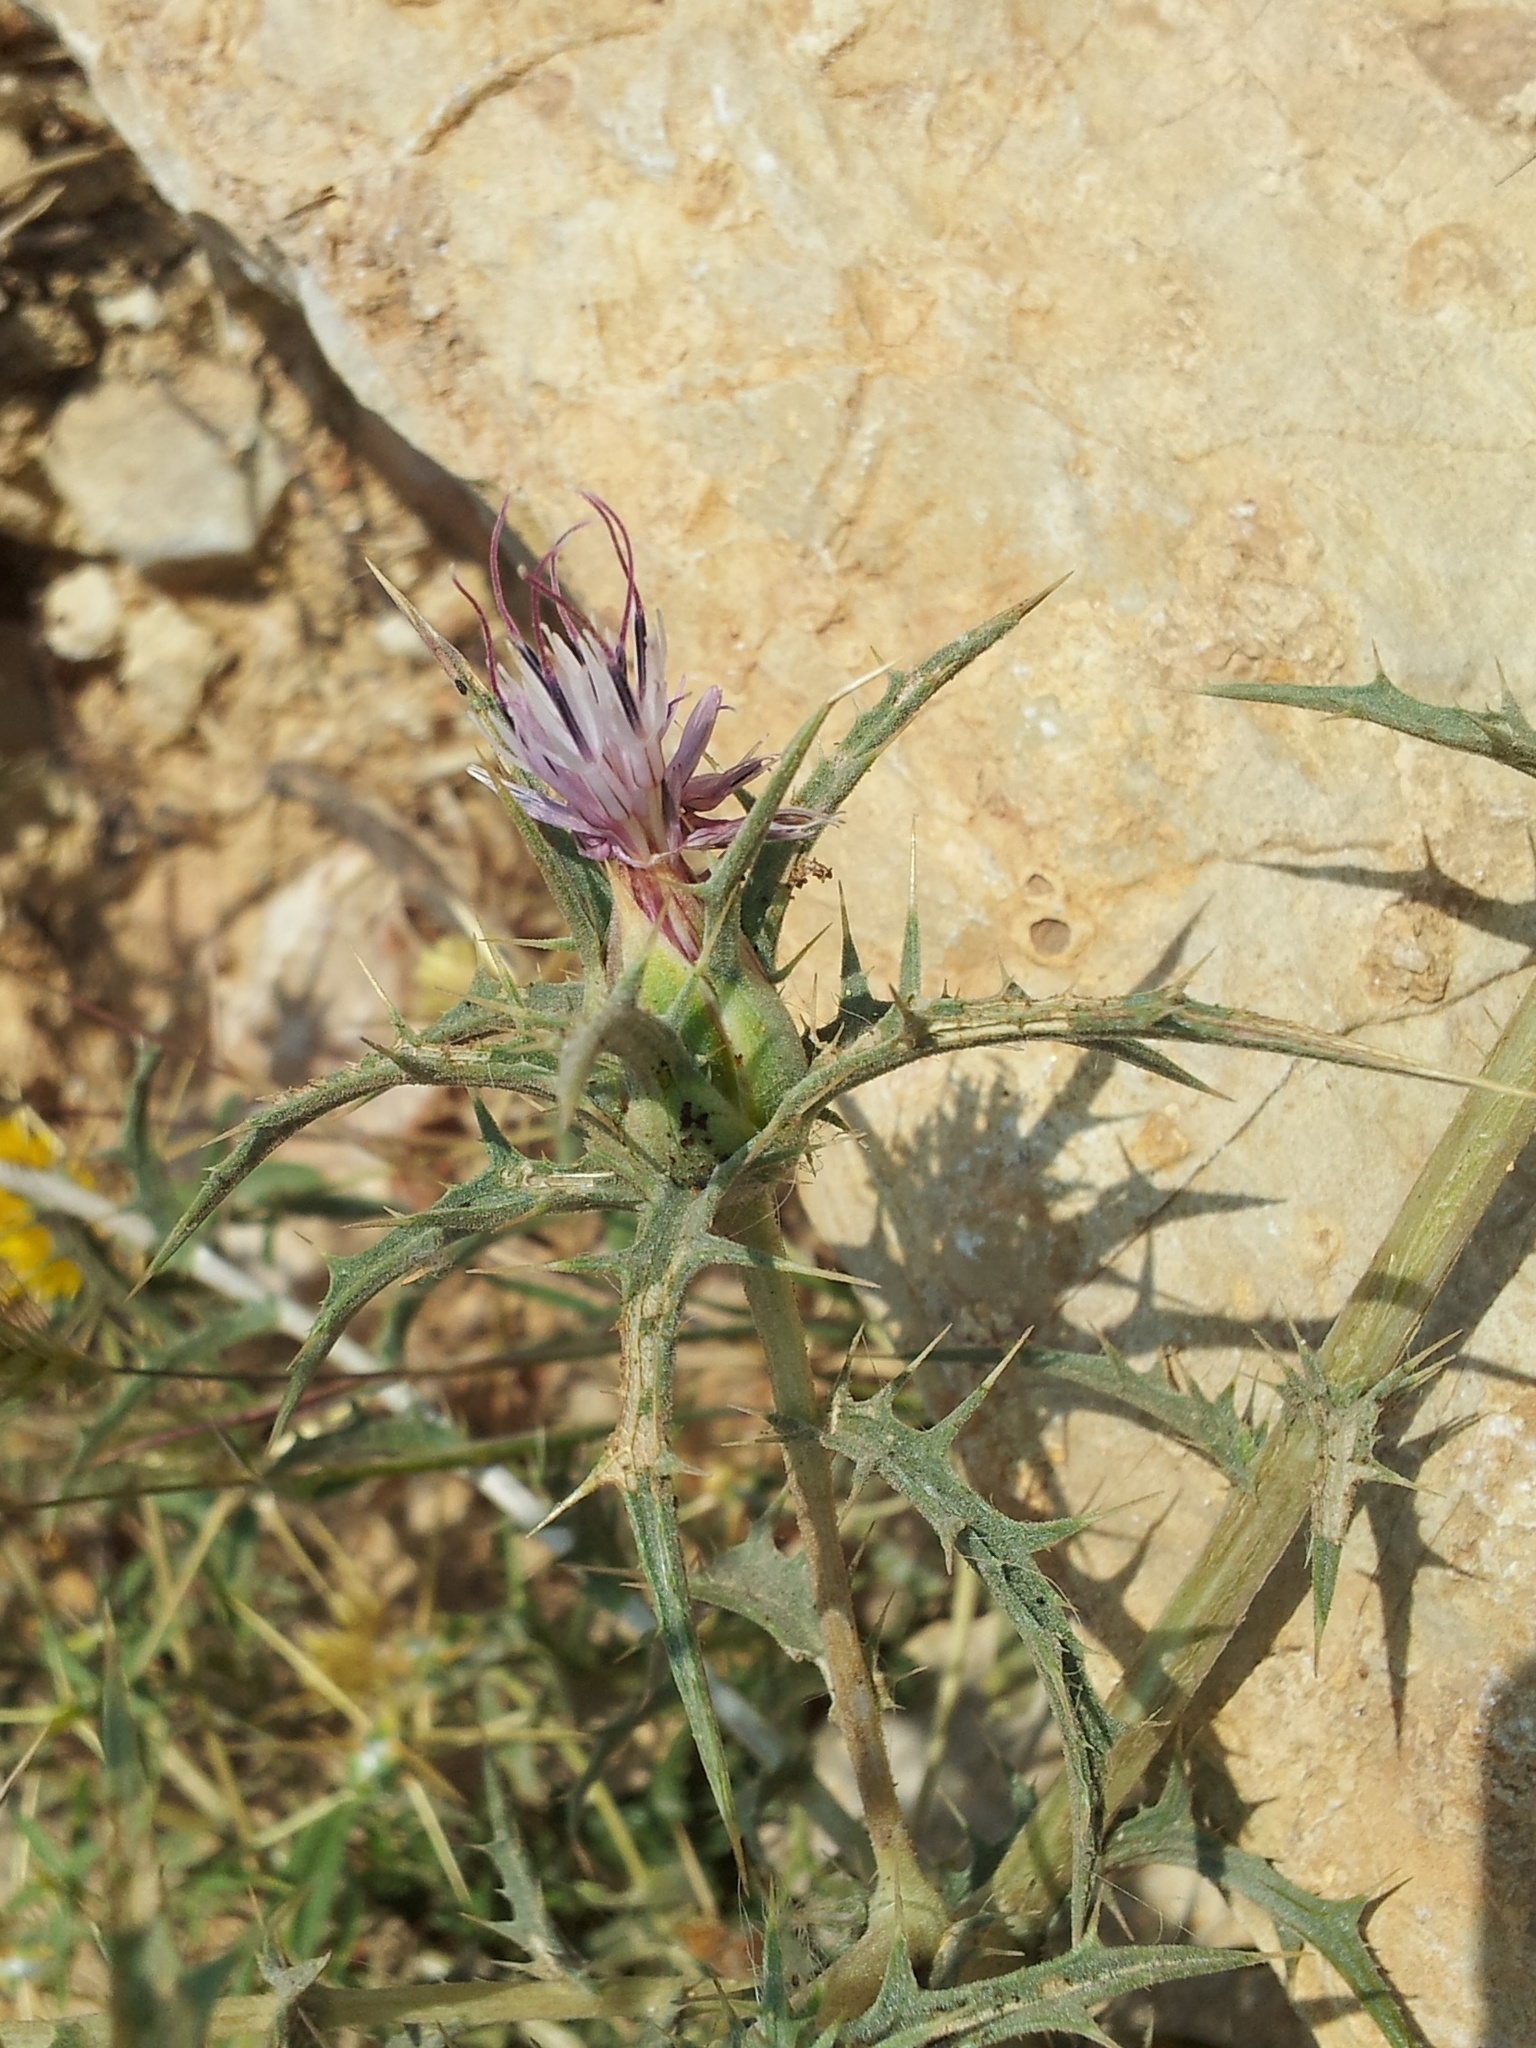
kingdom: Plantae
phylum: Tracheophyta
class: Magnoliopsida
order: Asterales
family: Asteraceae
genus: Carthamus
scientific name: Carthamus tenuis
